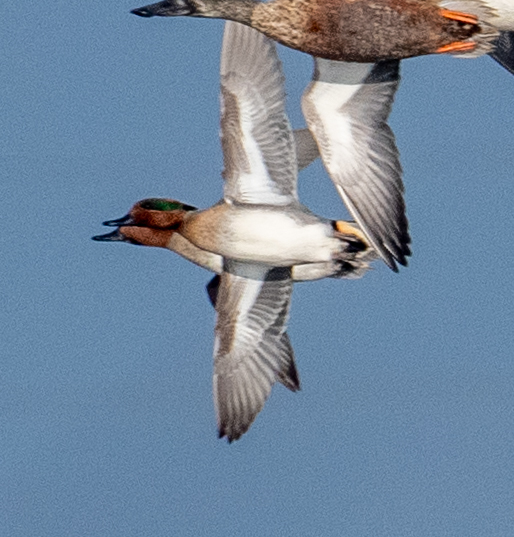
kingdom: Animalia
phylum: Chordata
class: Aves
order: Anseriformes
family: Anatidae
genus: Anas
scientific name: Anas crecca
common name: Eurasian teal
